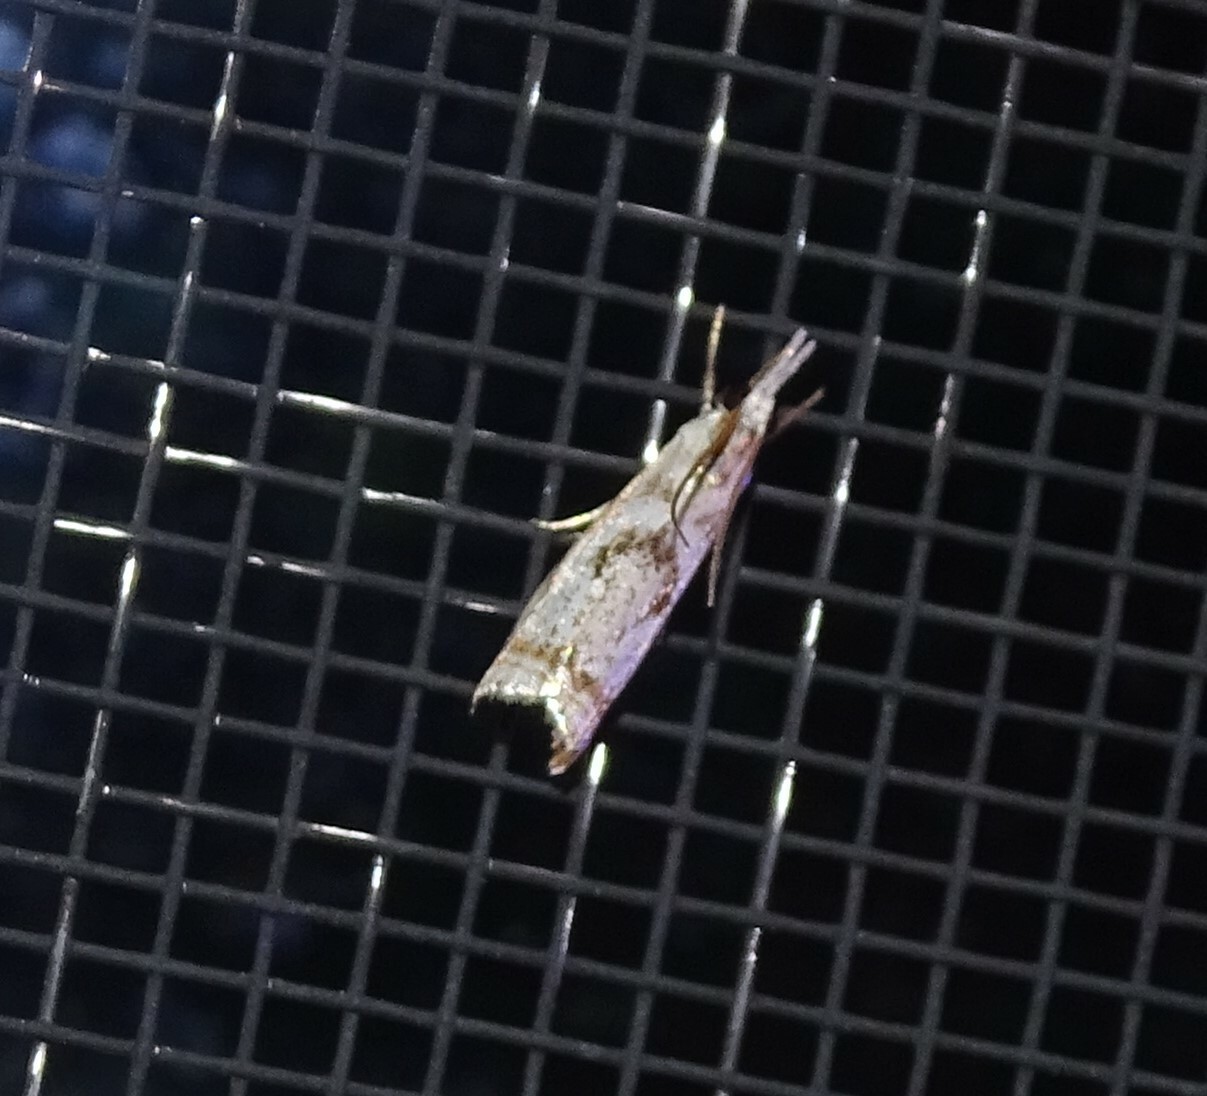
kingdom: Animalia
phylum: Arthropoda
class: Insecta
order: Lepidoptera
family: Crambidae
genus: Microcrambus
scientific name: Microcrambus elegans
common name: Elegant grass-veneer
